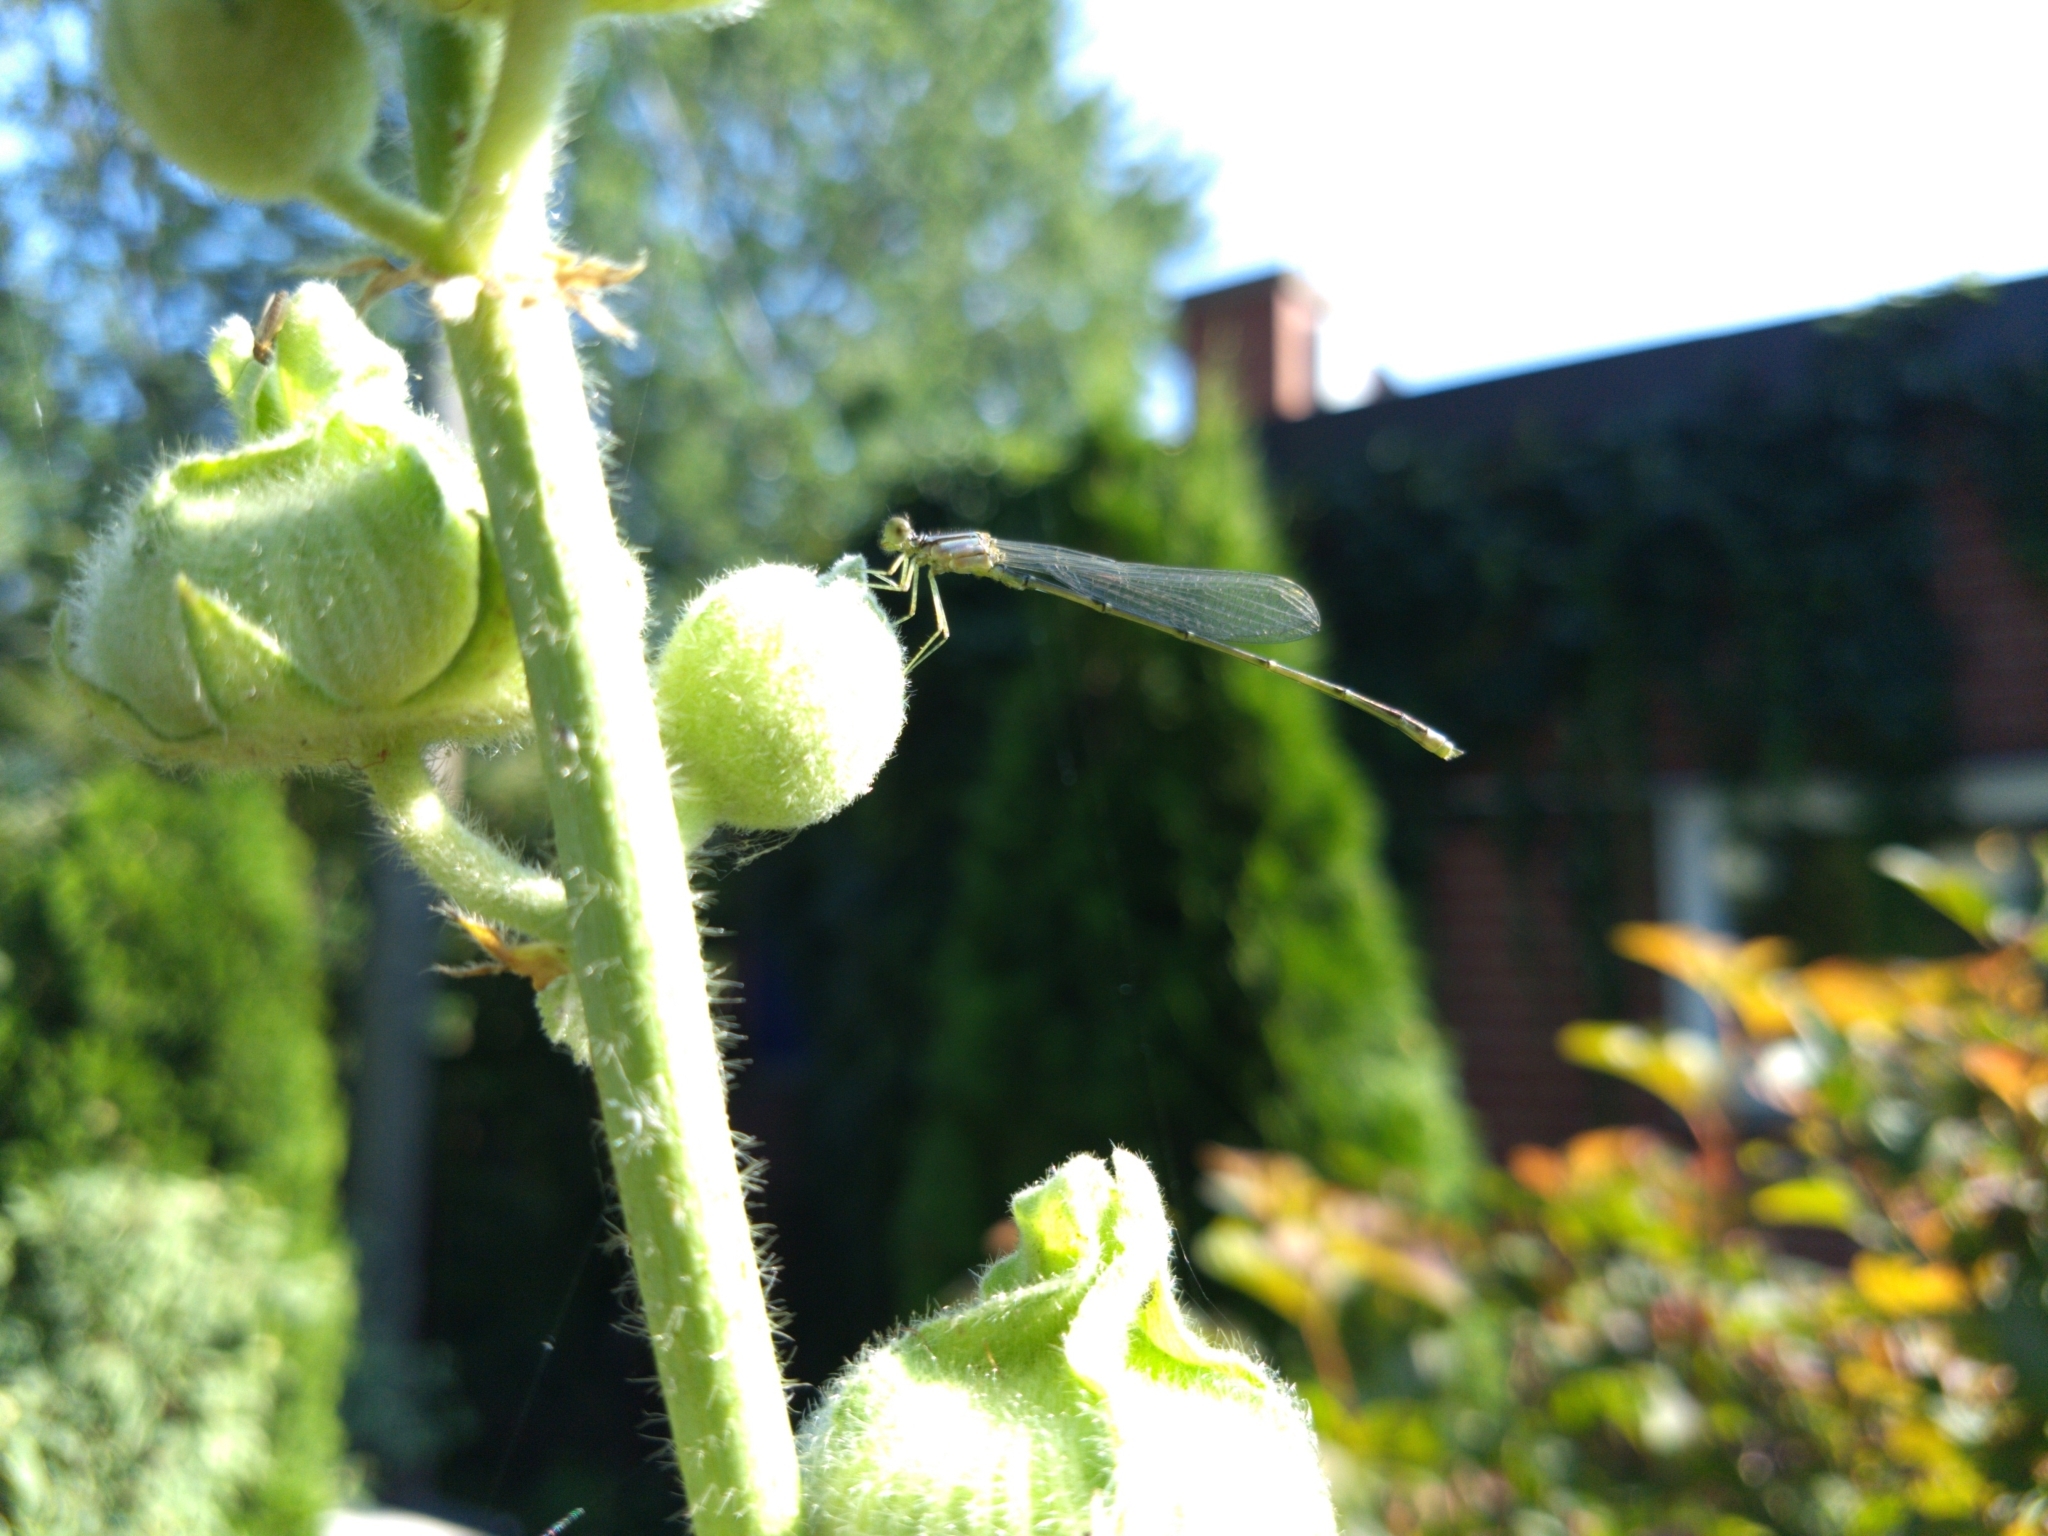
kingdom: Animalia
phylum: Arthropoda
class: Insecta
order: Odonata
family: Coenagrionidae
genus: Enallagma
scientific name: Enallagma signatum
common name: Orange bluet
